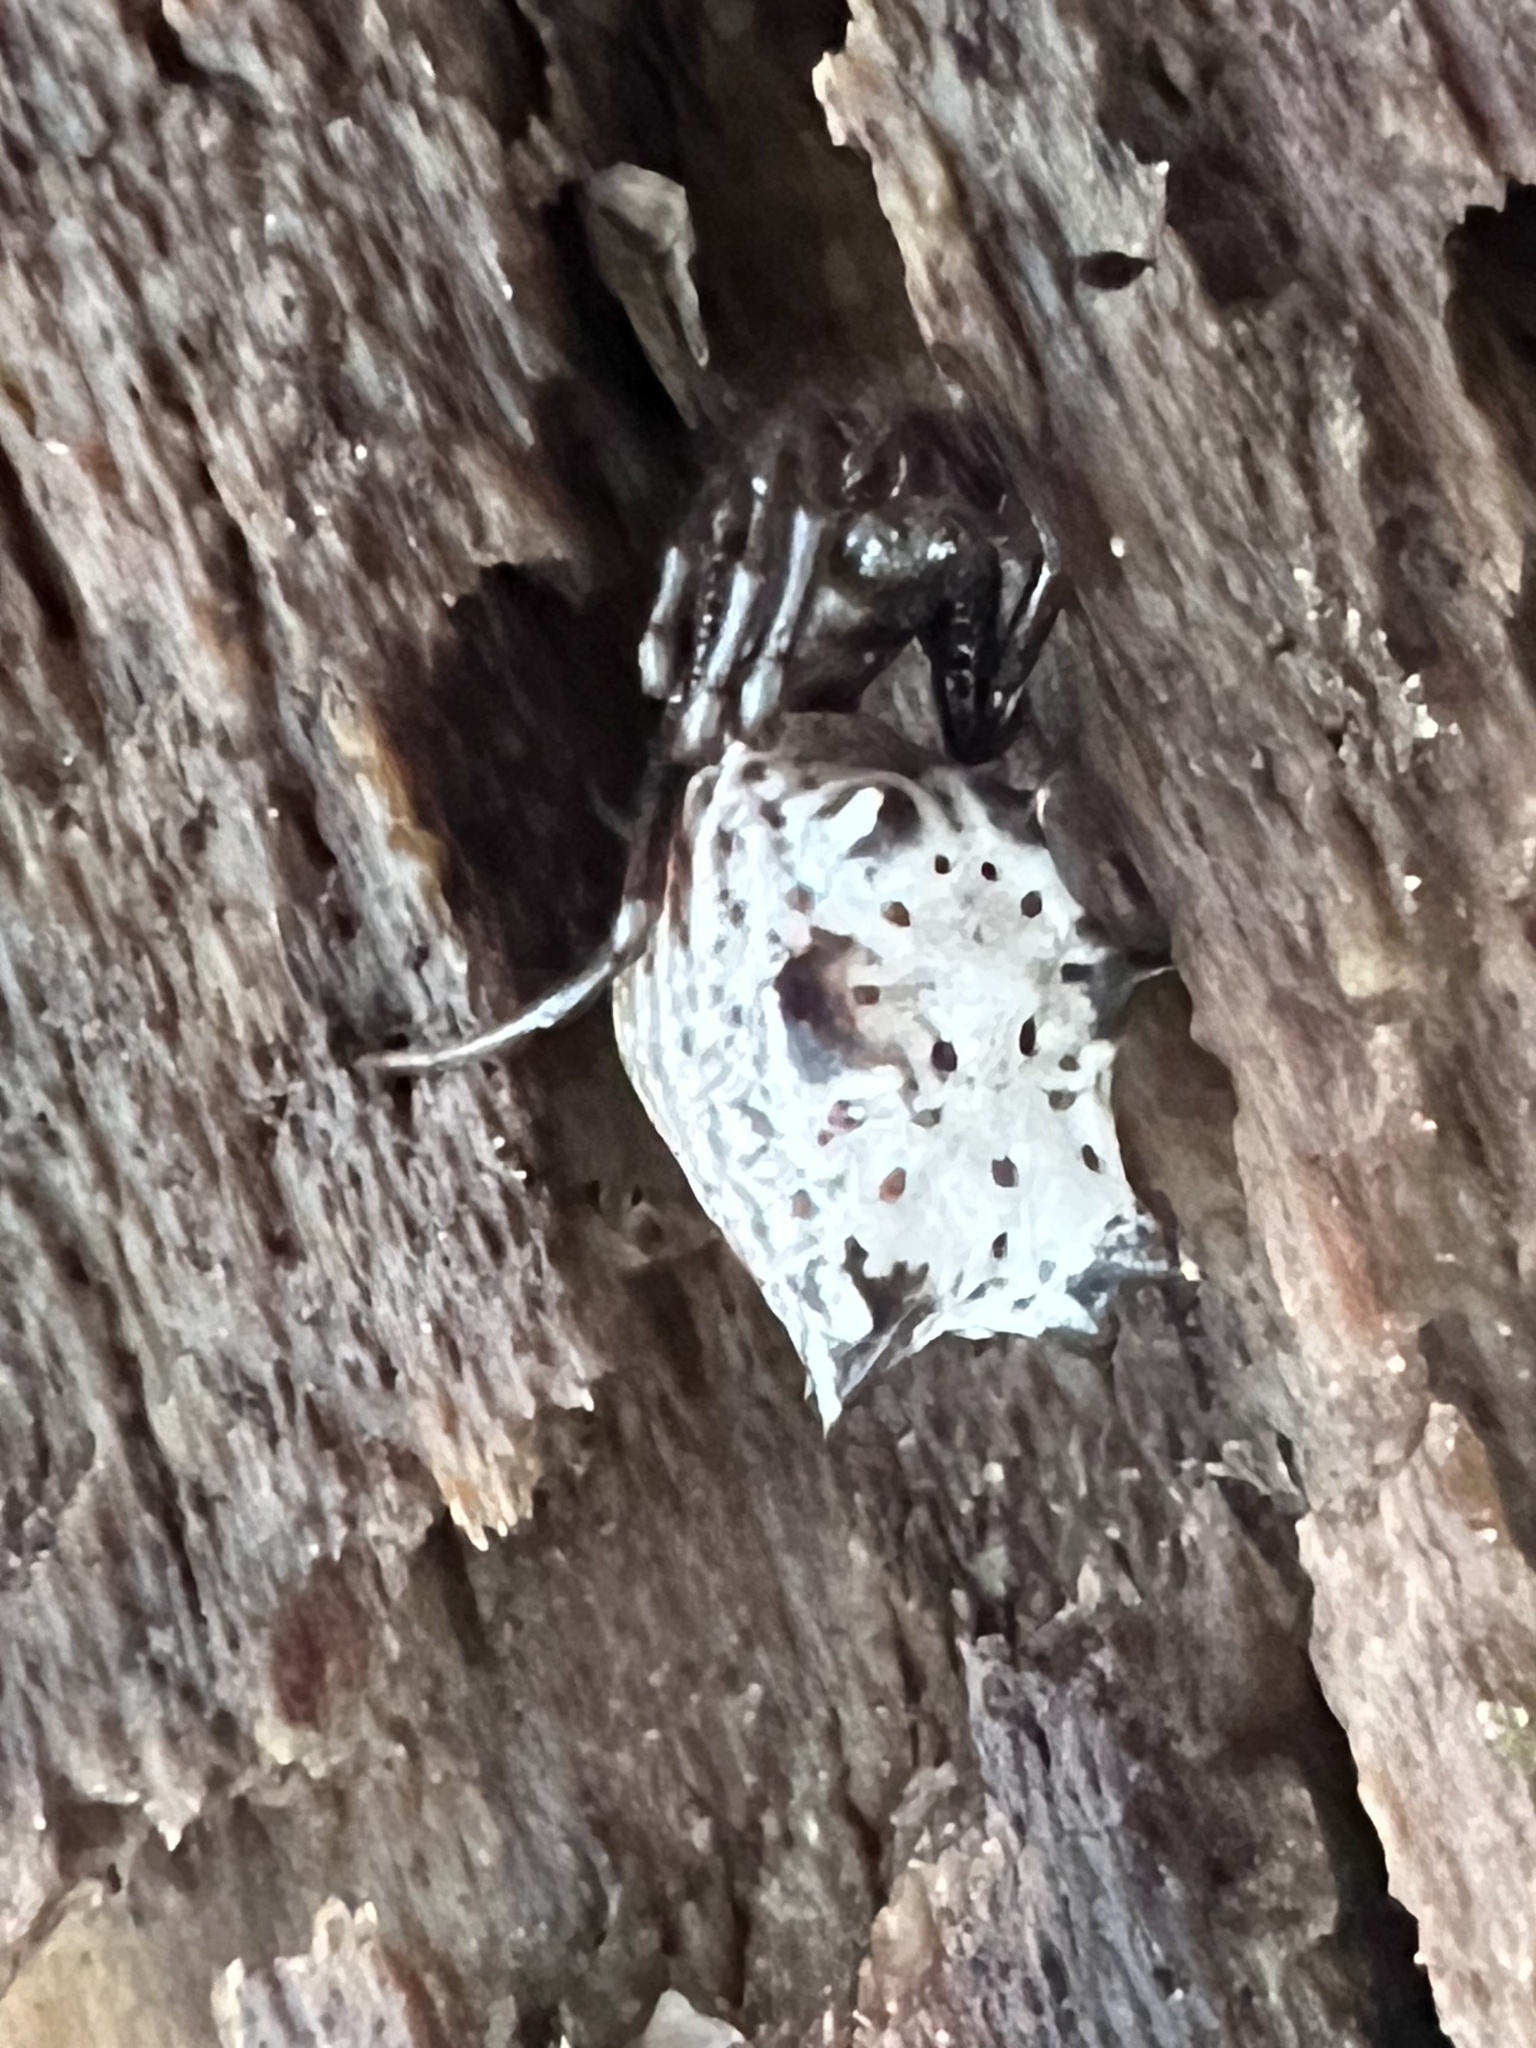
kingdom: Animalia
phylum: Arthropoda
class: Arachnida
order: Araneae
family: Araneidae
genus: Micrathena
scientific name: Micrathena gracilis
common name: Orb weavers
